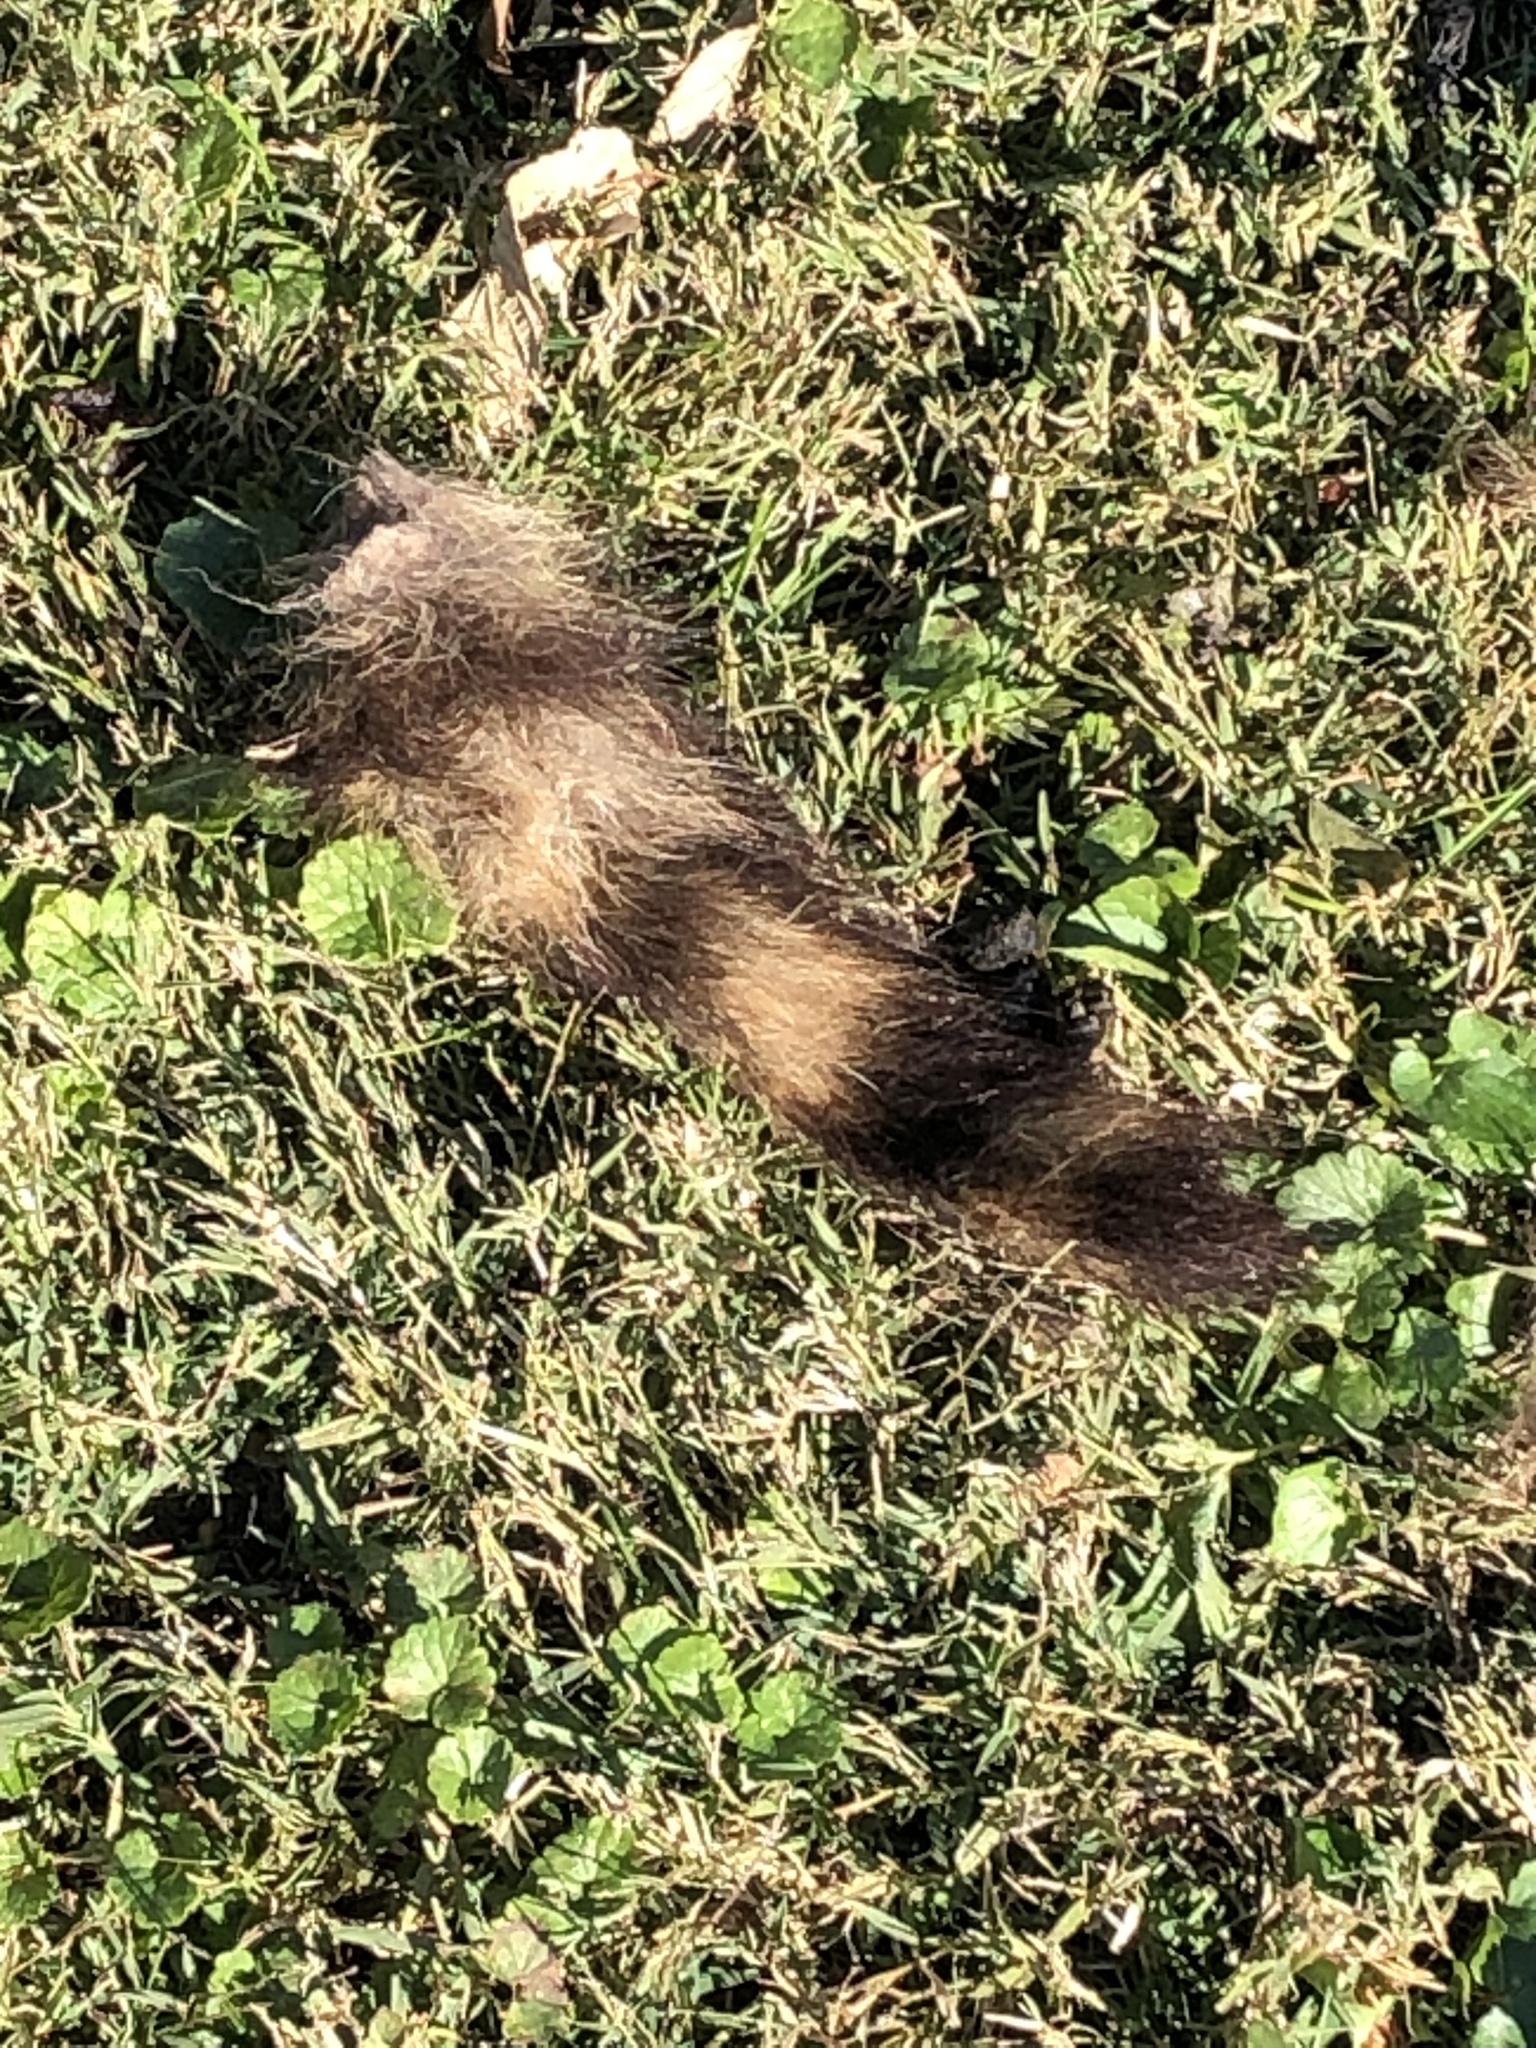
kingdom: Animalia
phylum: Chordata
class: Mammalia
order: Carnivora
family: Procyonidae
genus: Procyon
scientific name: Procyon lotor
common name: Raccoon
